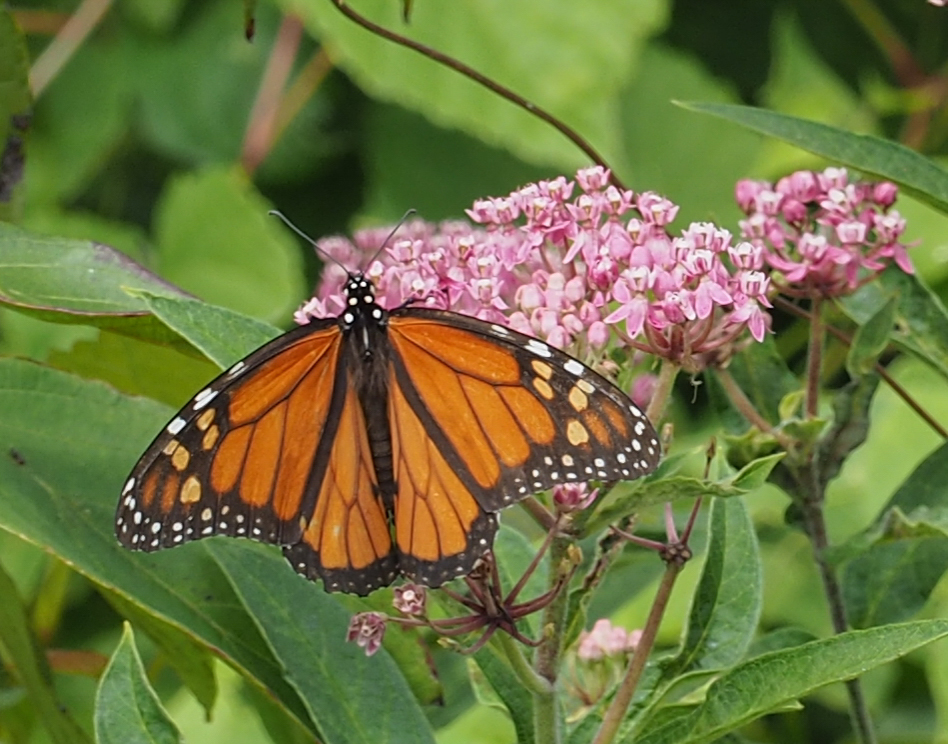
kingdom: Animalia
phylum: Arthropoda
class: Insecta
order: Lepidoptera
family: Nymphalidae
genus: Danaus
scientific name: Danaus plexippus
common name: Monarch
